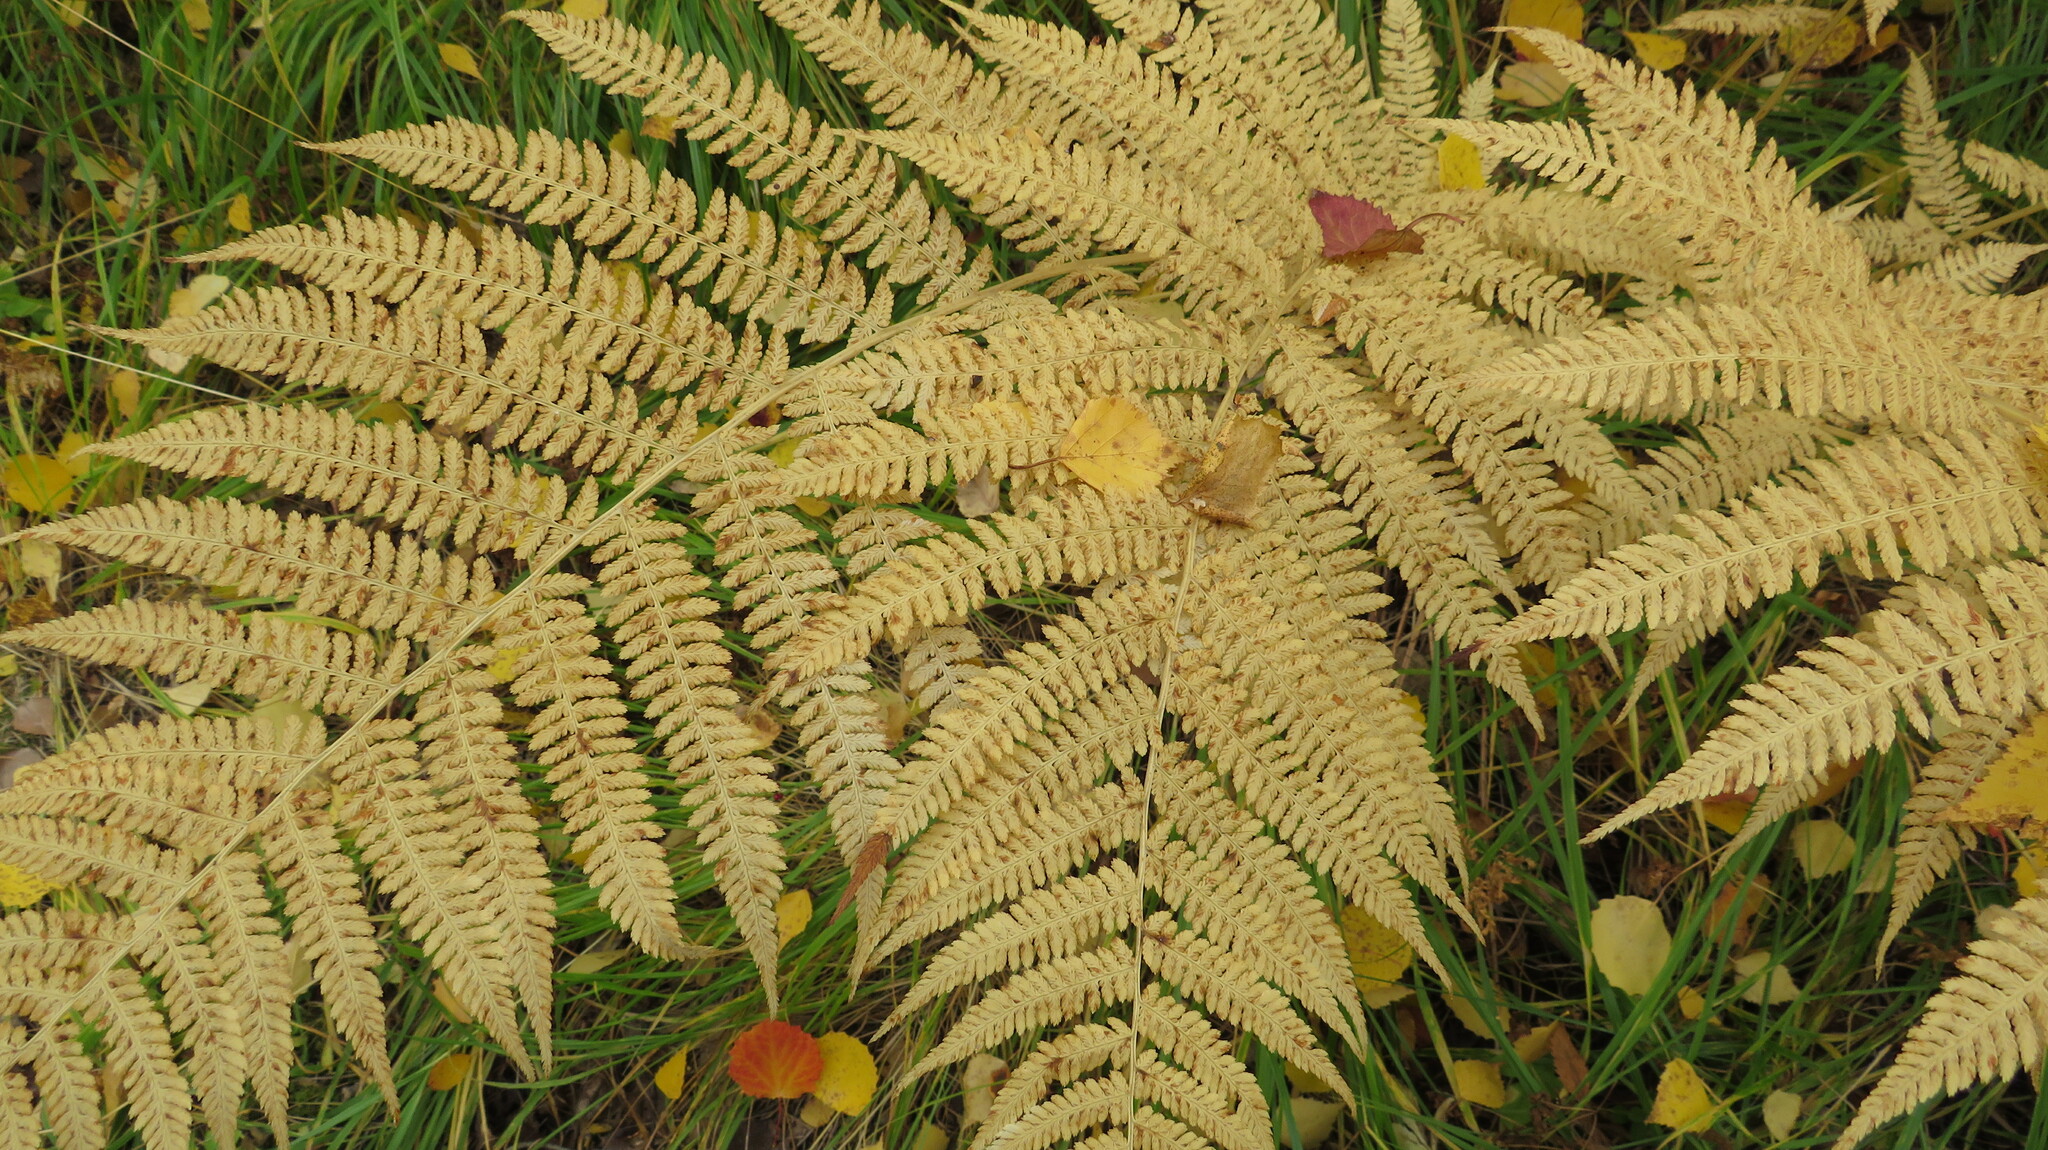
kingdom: Plantae
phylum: Tracheophyta
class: Polypodiopsida
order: Polypodiales
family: Athyriaceae
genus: Athyrium
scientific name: Athyrium filix-femina
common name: Lady fern
